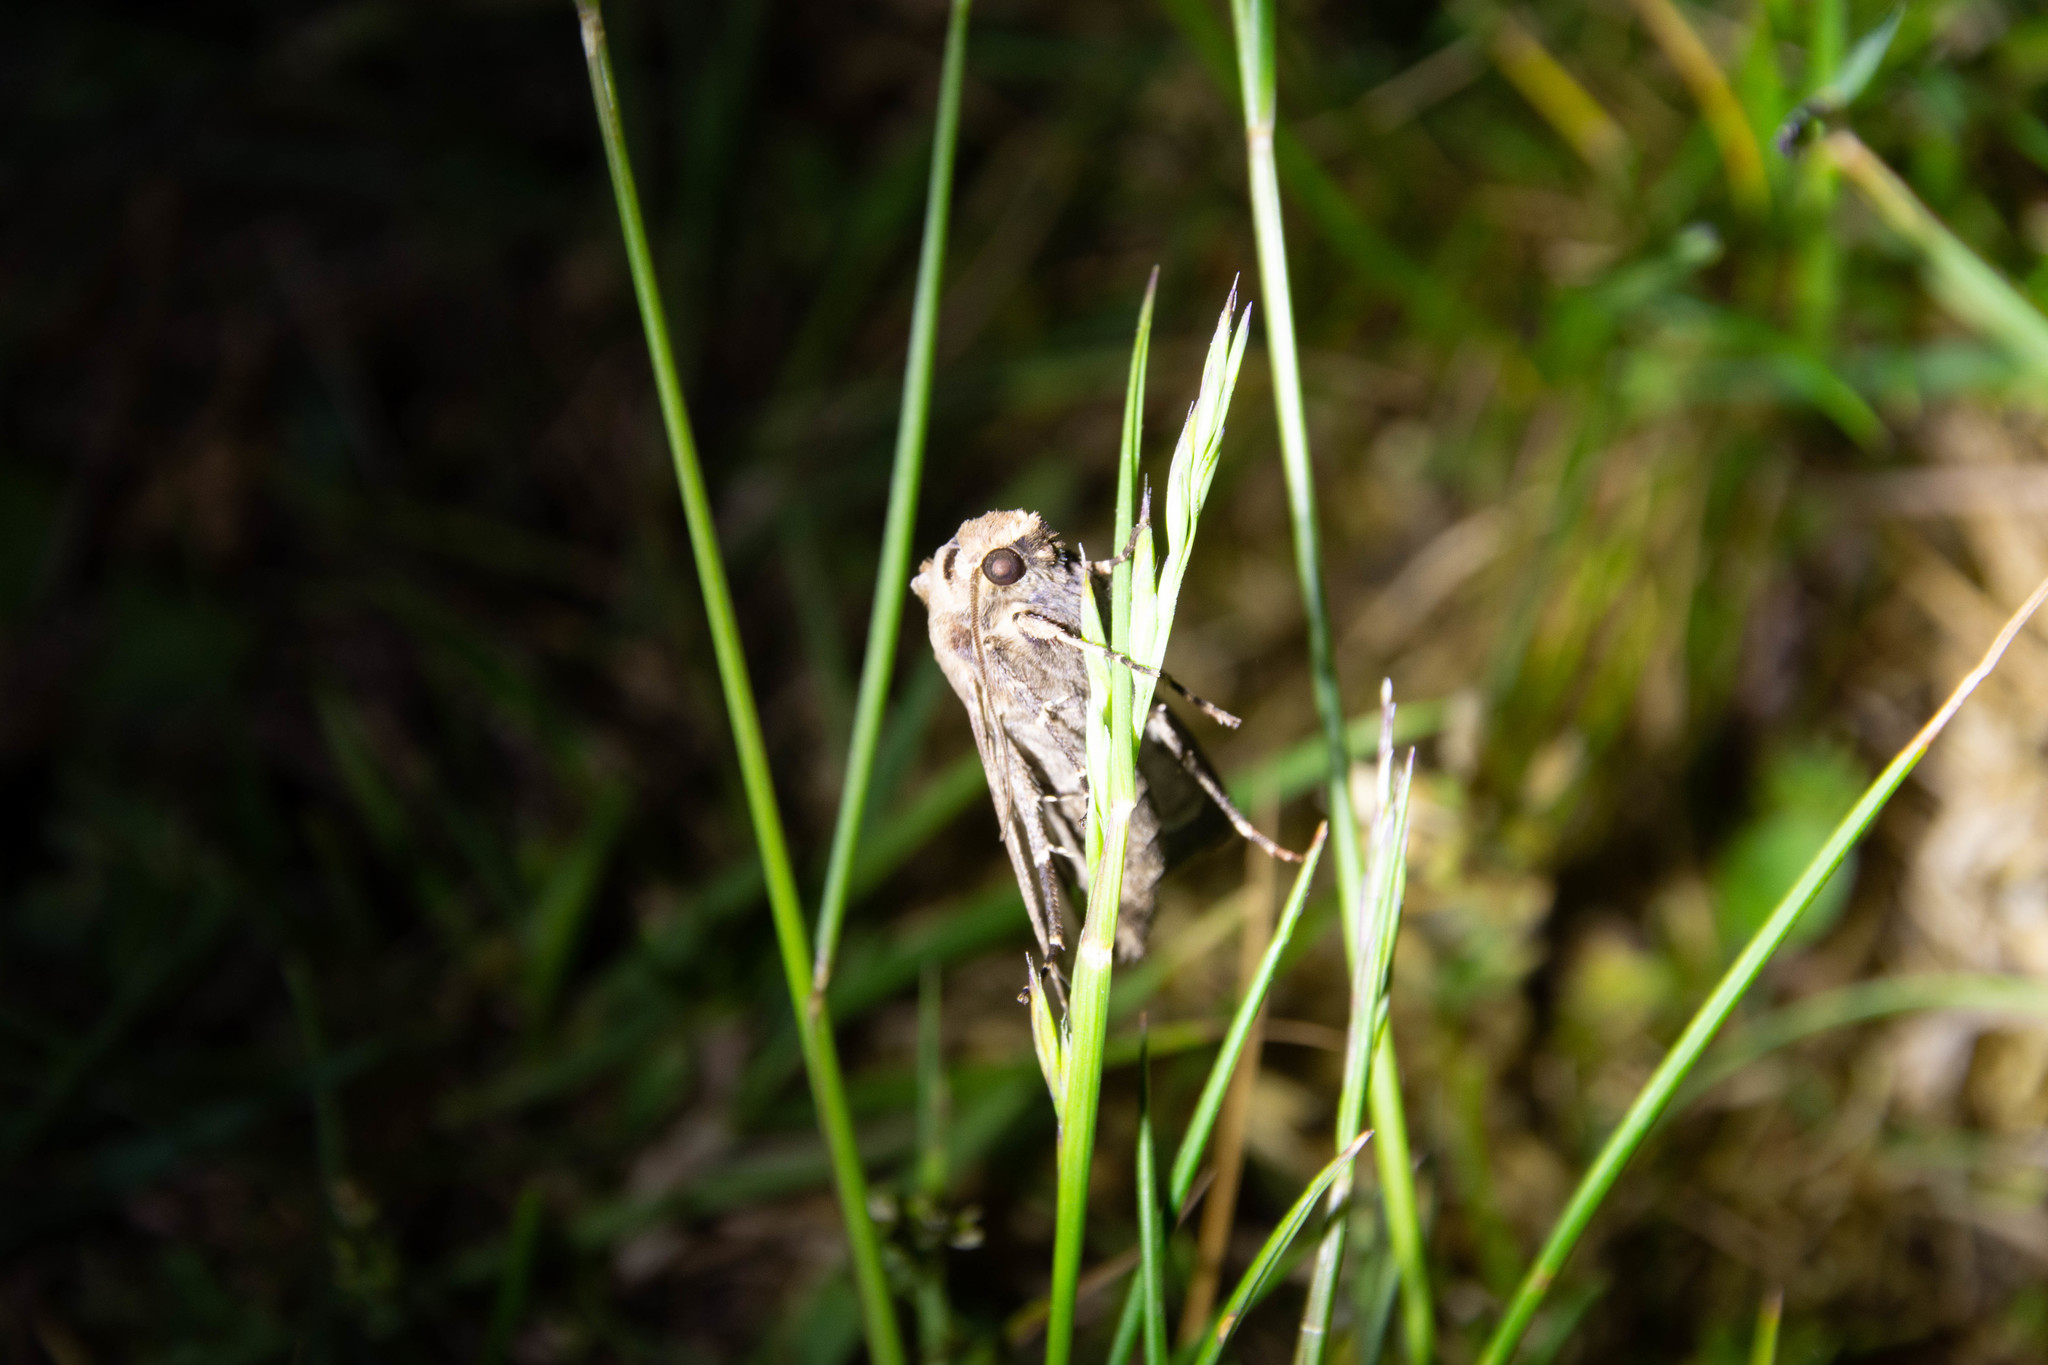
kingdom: Animalia
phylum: Arthropoda
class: Insecta
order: Lepidoptera
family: Noctuidae
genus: Agrotis
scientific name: Agrotis exclamationis
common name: Heart and dart
